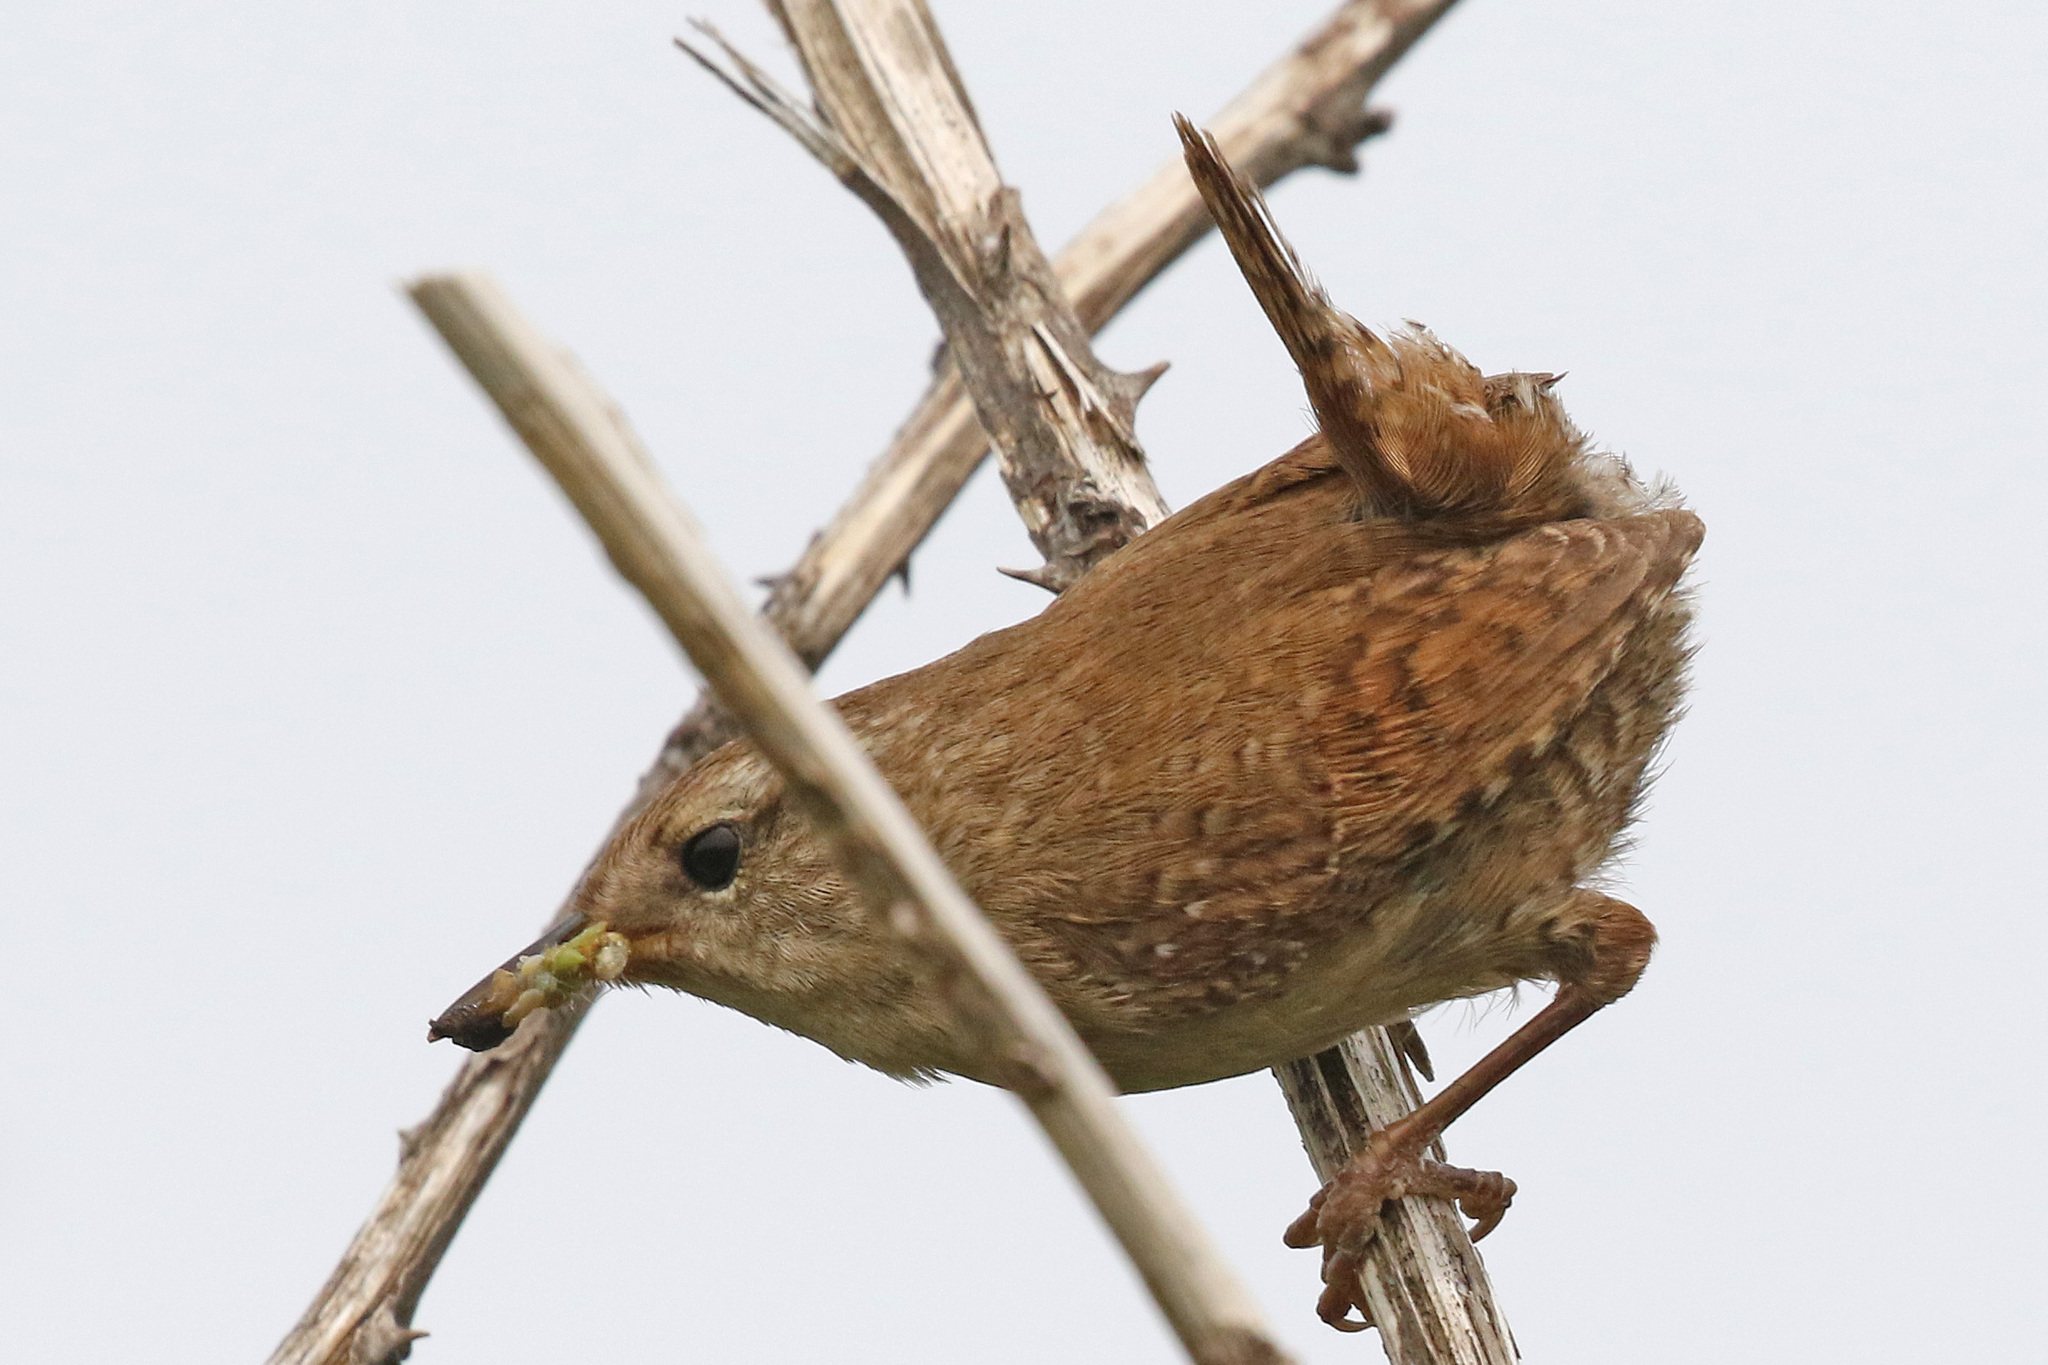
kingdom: Animalia
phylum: Chordata
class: Aves
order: Passeriformes
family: Troglodytidae
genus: Troglodytes
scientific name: Troglodytes troglodytes
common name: Eurasian wren
